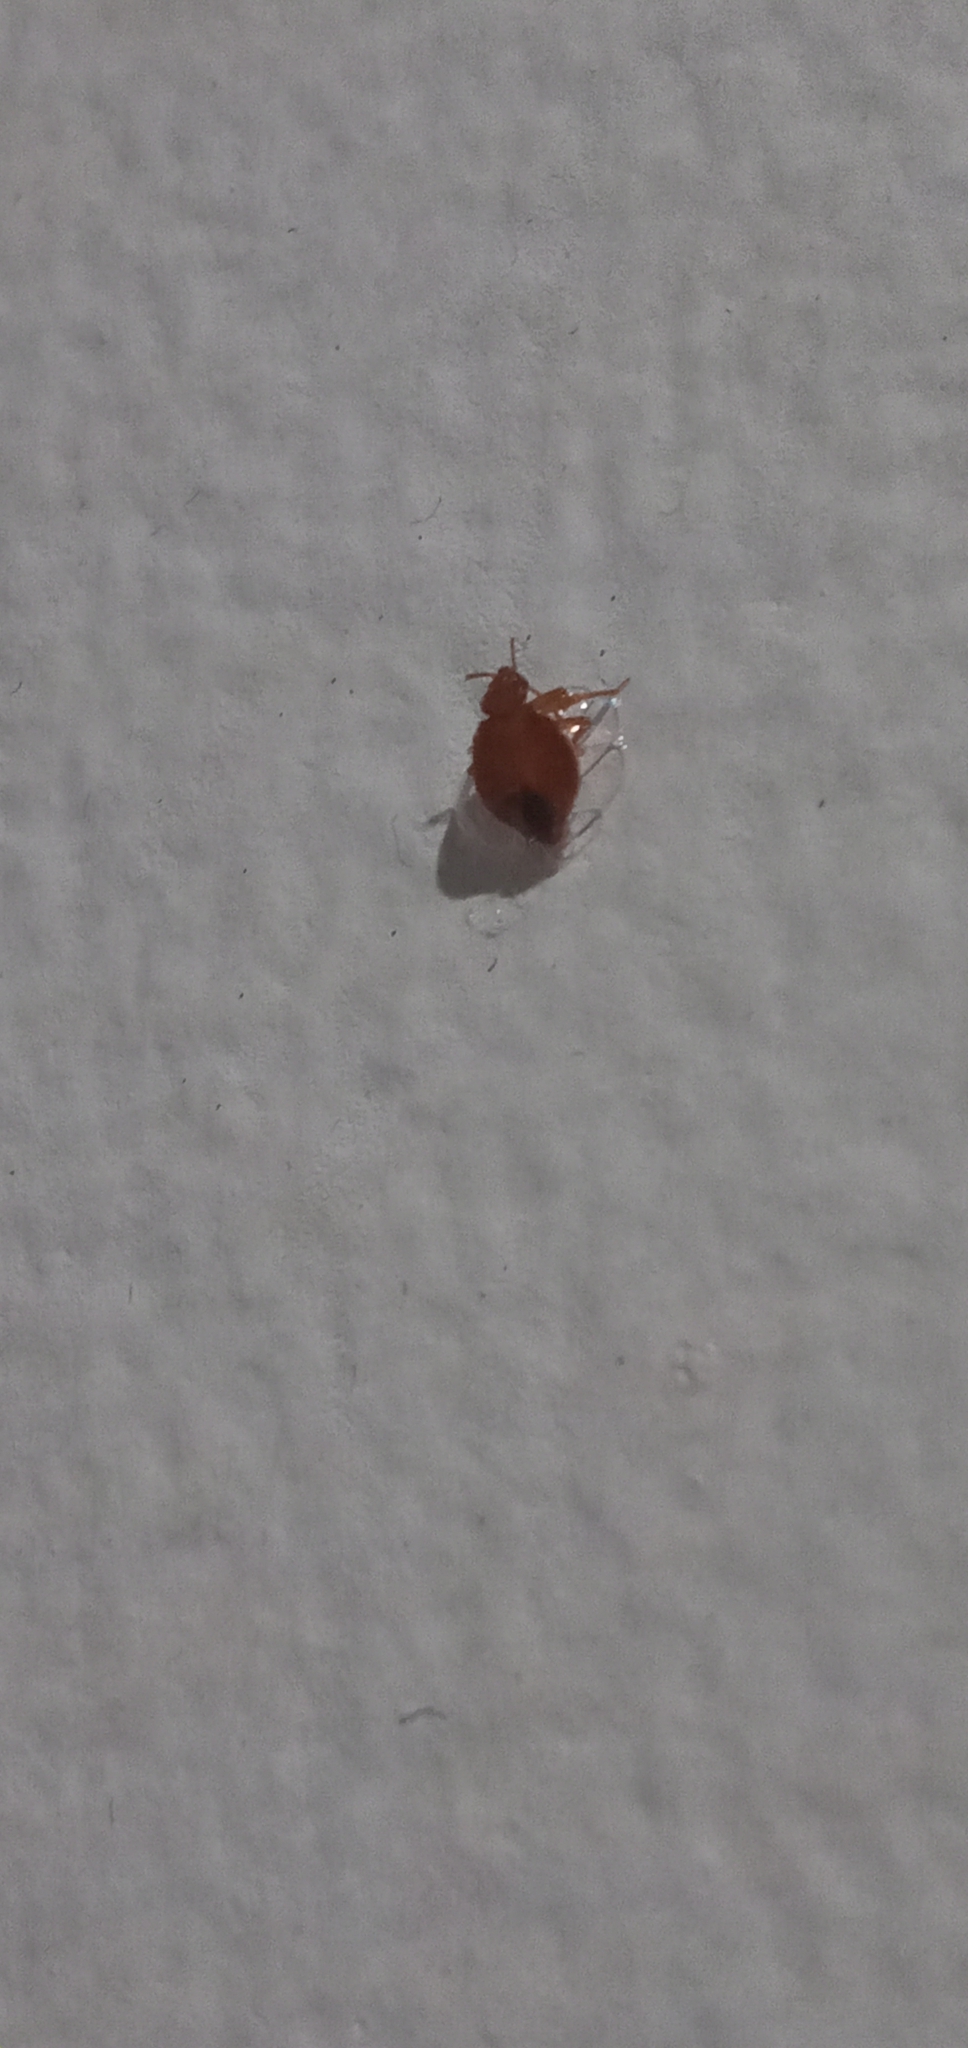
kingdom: Animalia
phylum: Arthropoda
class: Insecta
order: Hemiptera
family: Cimicidae
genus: Cimex
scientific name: Cimex lectularius
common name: Bed bug
